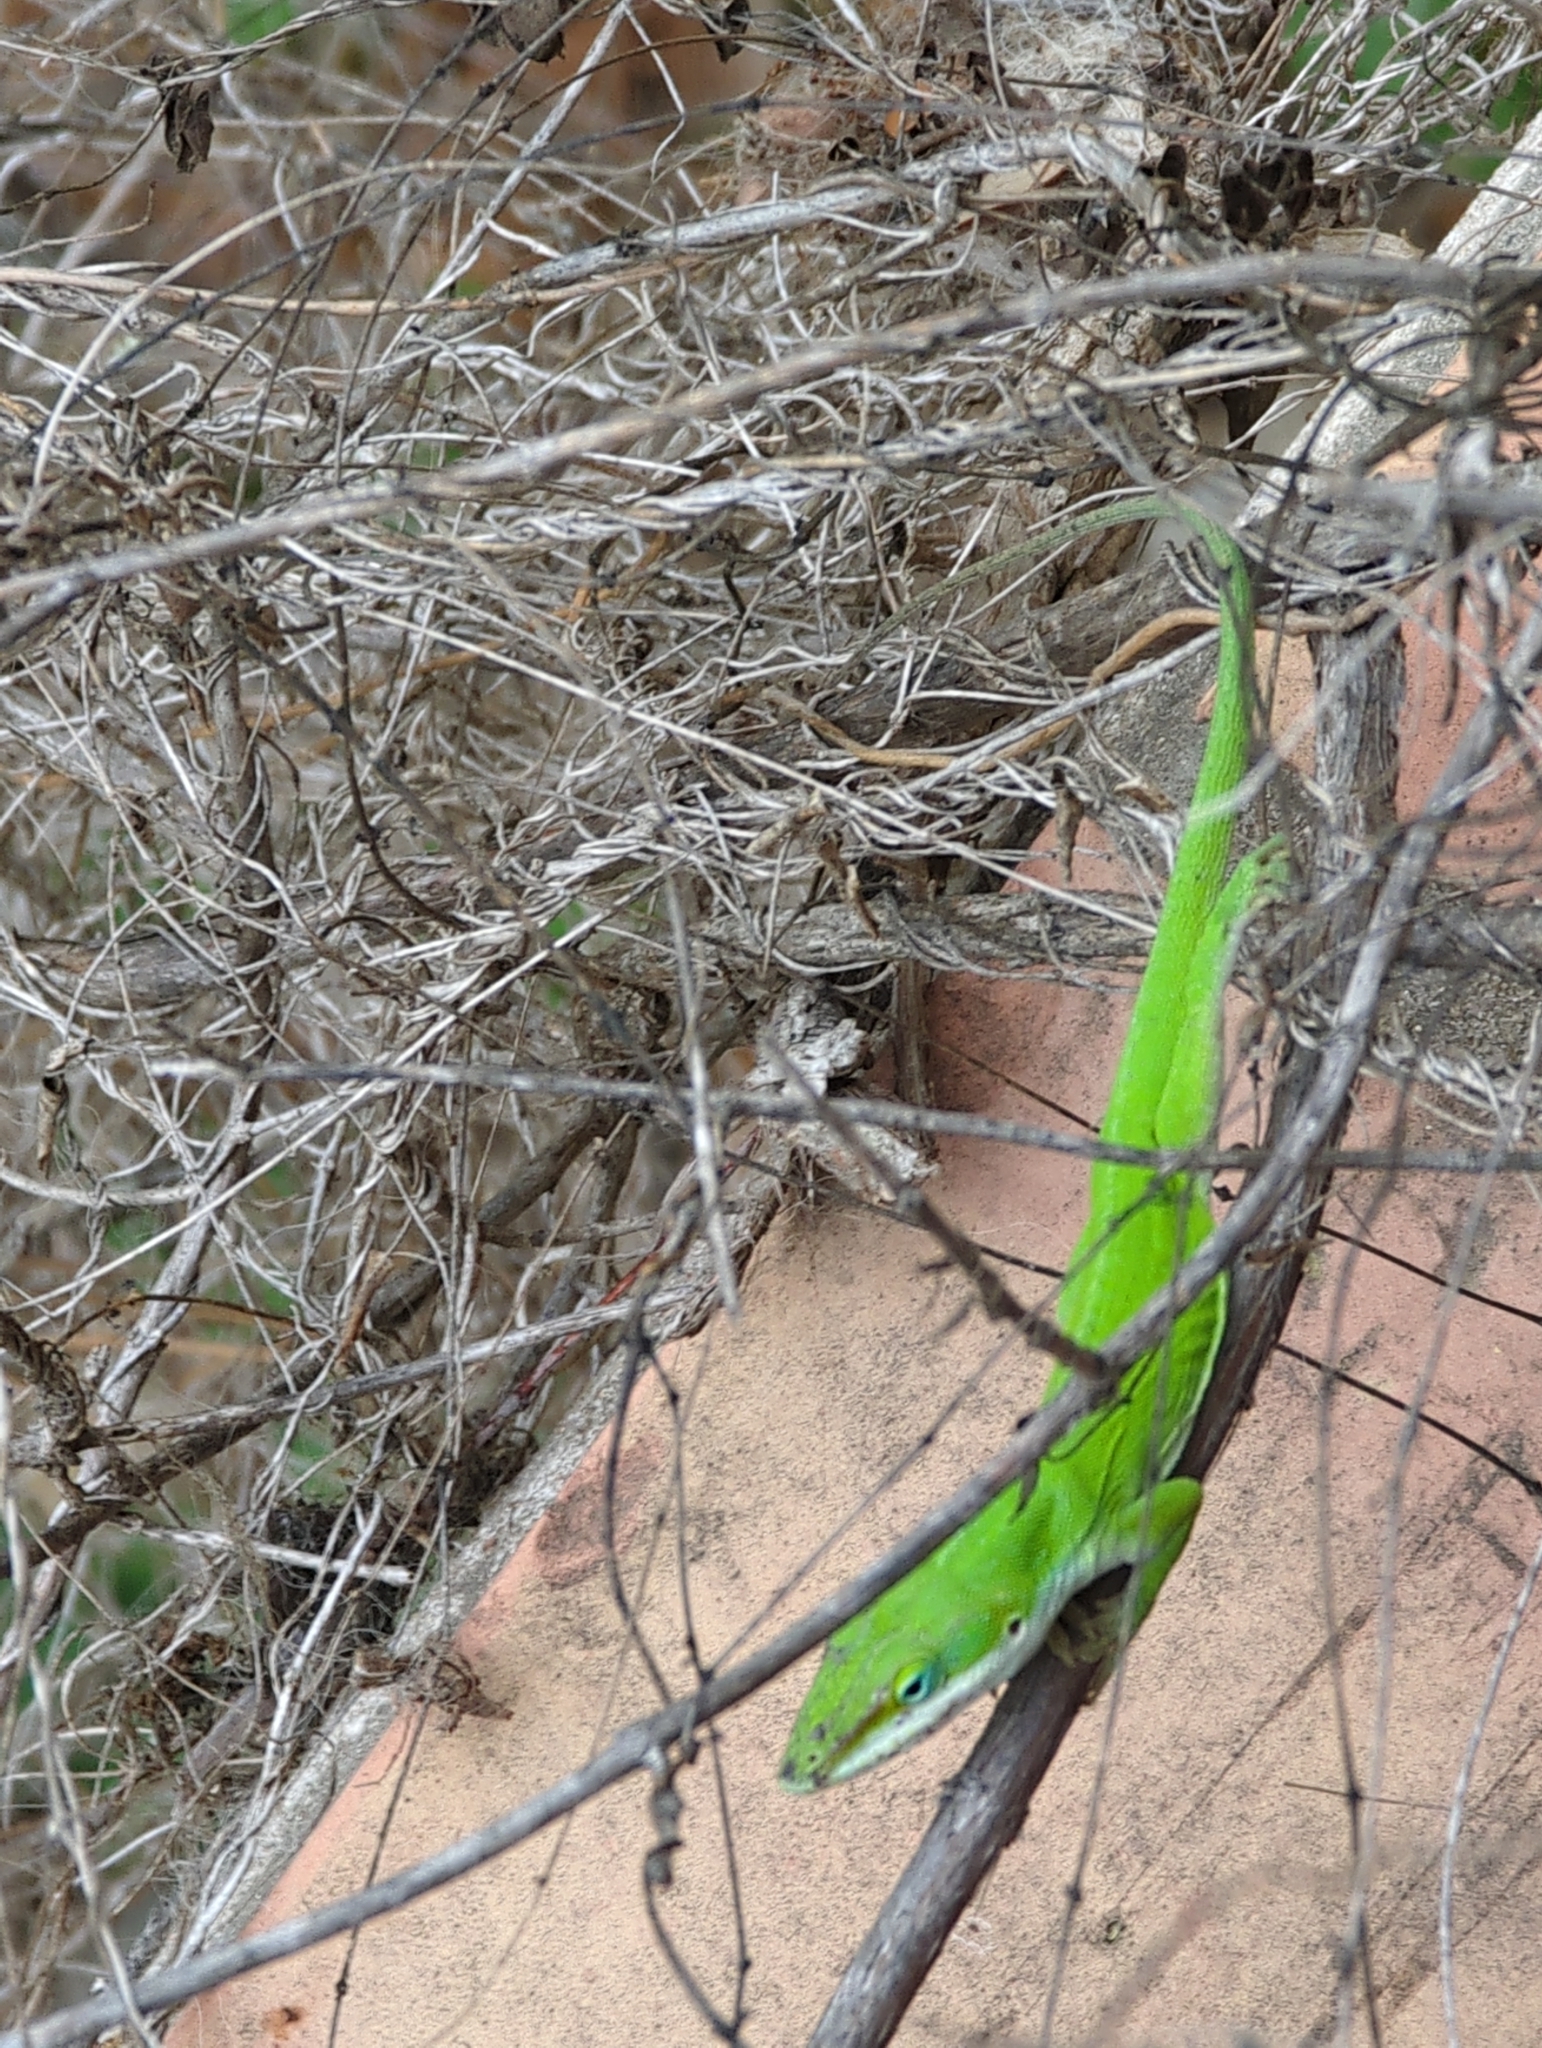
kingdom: Animalia
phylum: Chordata
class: Squamata
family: Dactyloidae
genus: Anolis
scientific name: Anolis carolinensis
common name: Green anole
